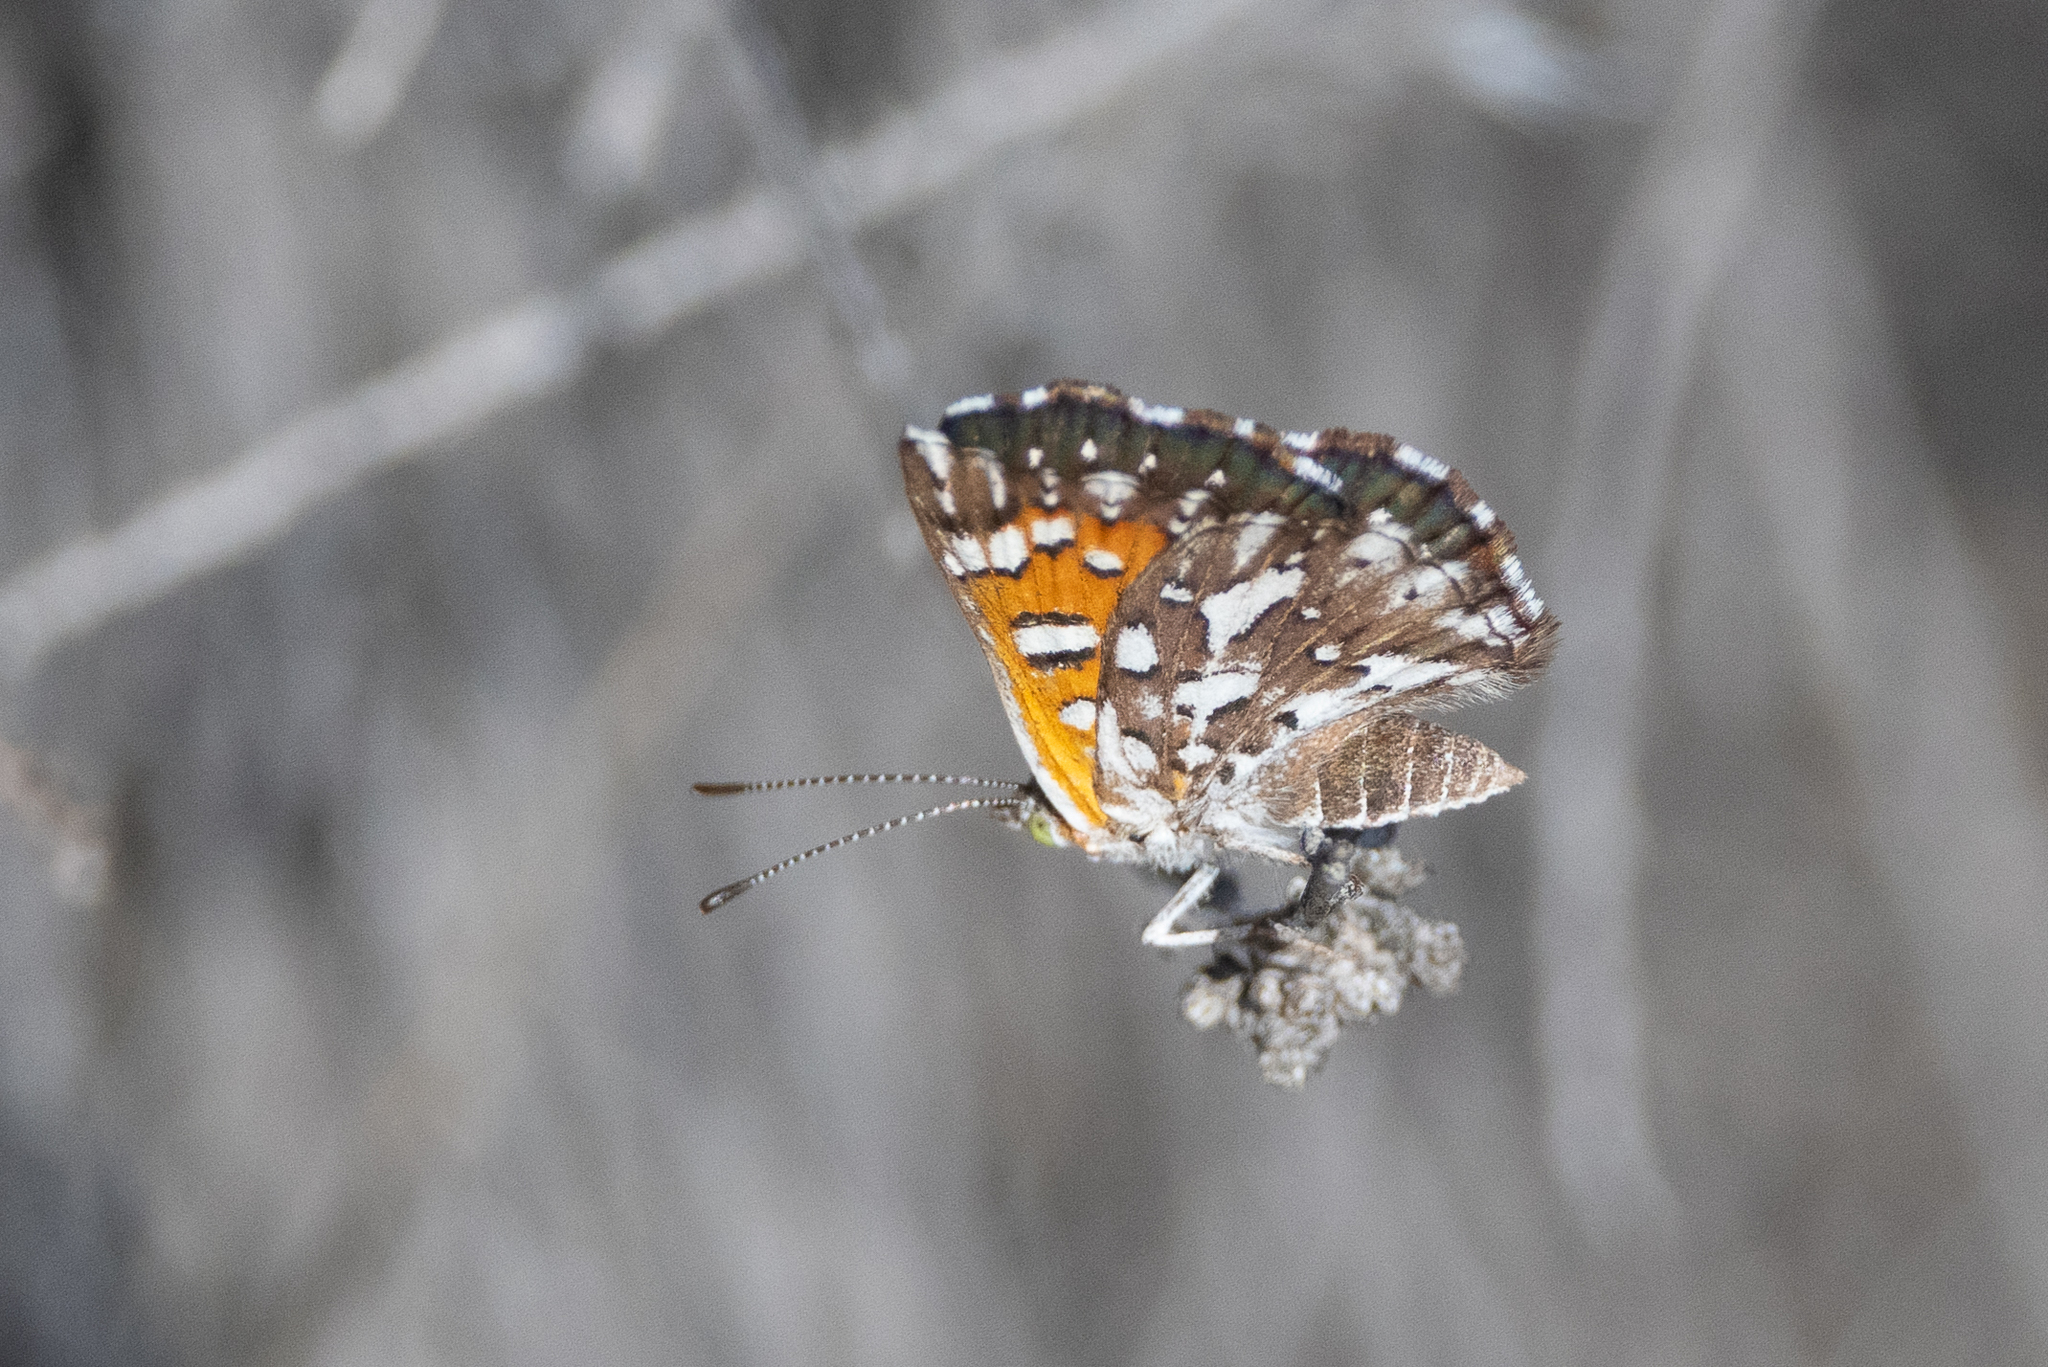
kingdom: Animalia
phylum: Arthropoda
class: Insecta
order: Lepidoptera
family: Riodinidae
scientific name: Riodinidae
